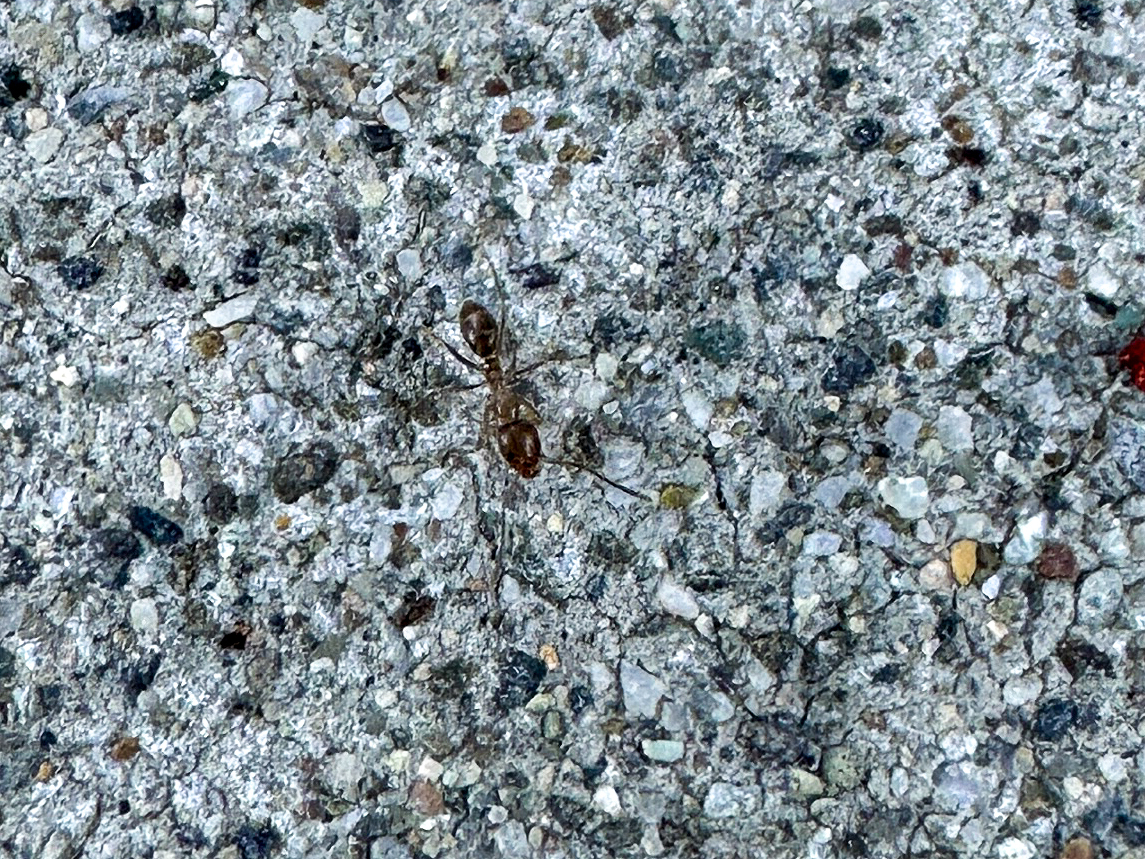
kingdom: Animalia
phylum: Arthropoda
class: Insecta
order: Hymenoptera
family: Formicidae
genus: Linepithema
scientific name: Linepithema humile
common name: Argentine ant
